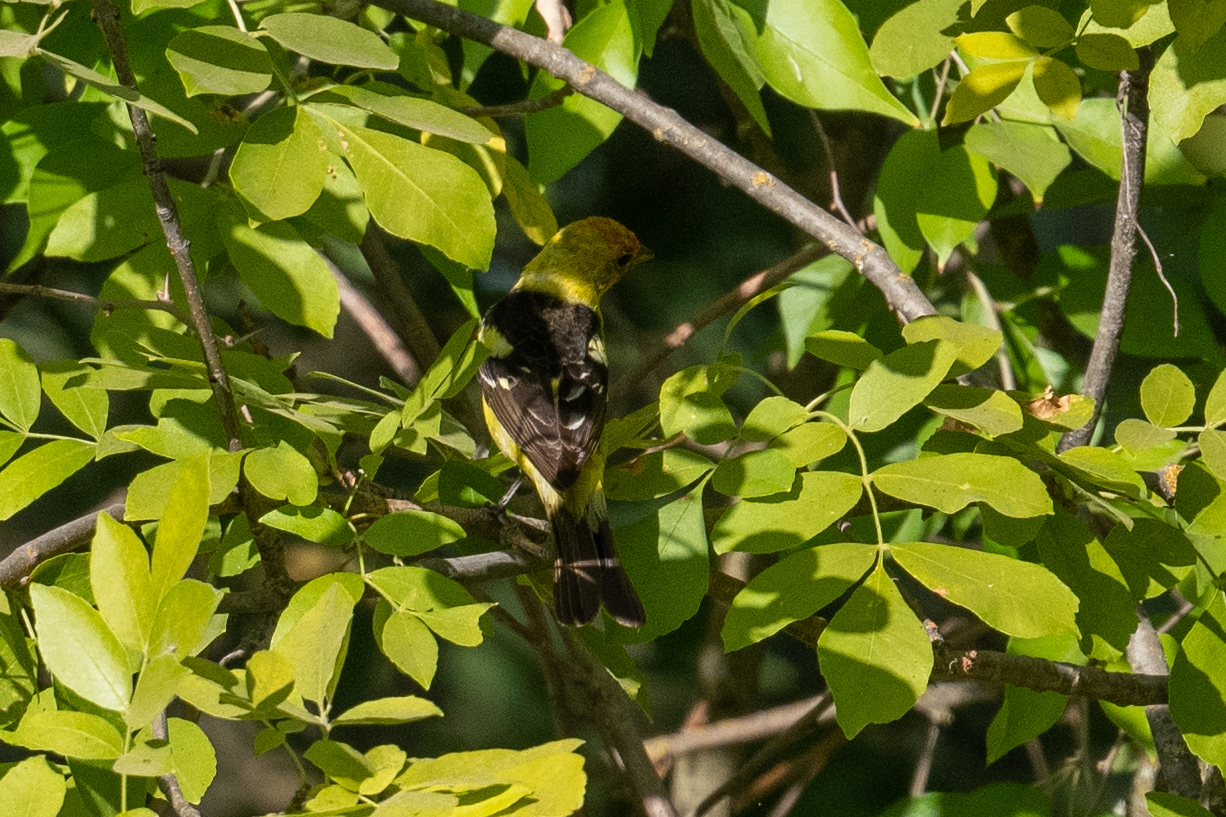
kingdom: Animalia
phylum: Chordata
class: Aves
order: Passeriformes
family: Cardinalidae
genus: Piranga
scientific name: Piranga ludoviciana
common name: Western tanager
